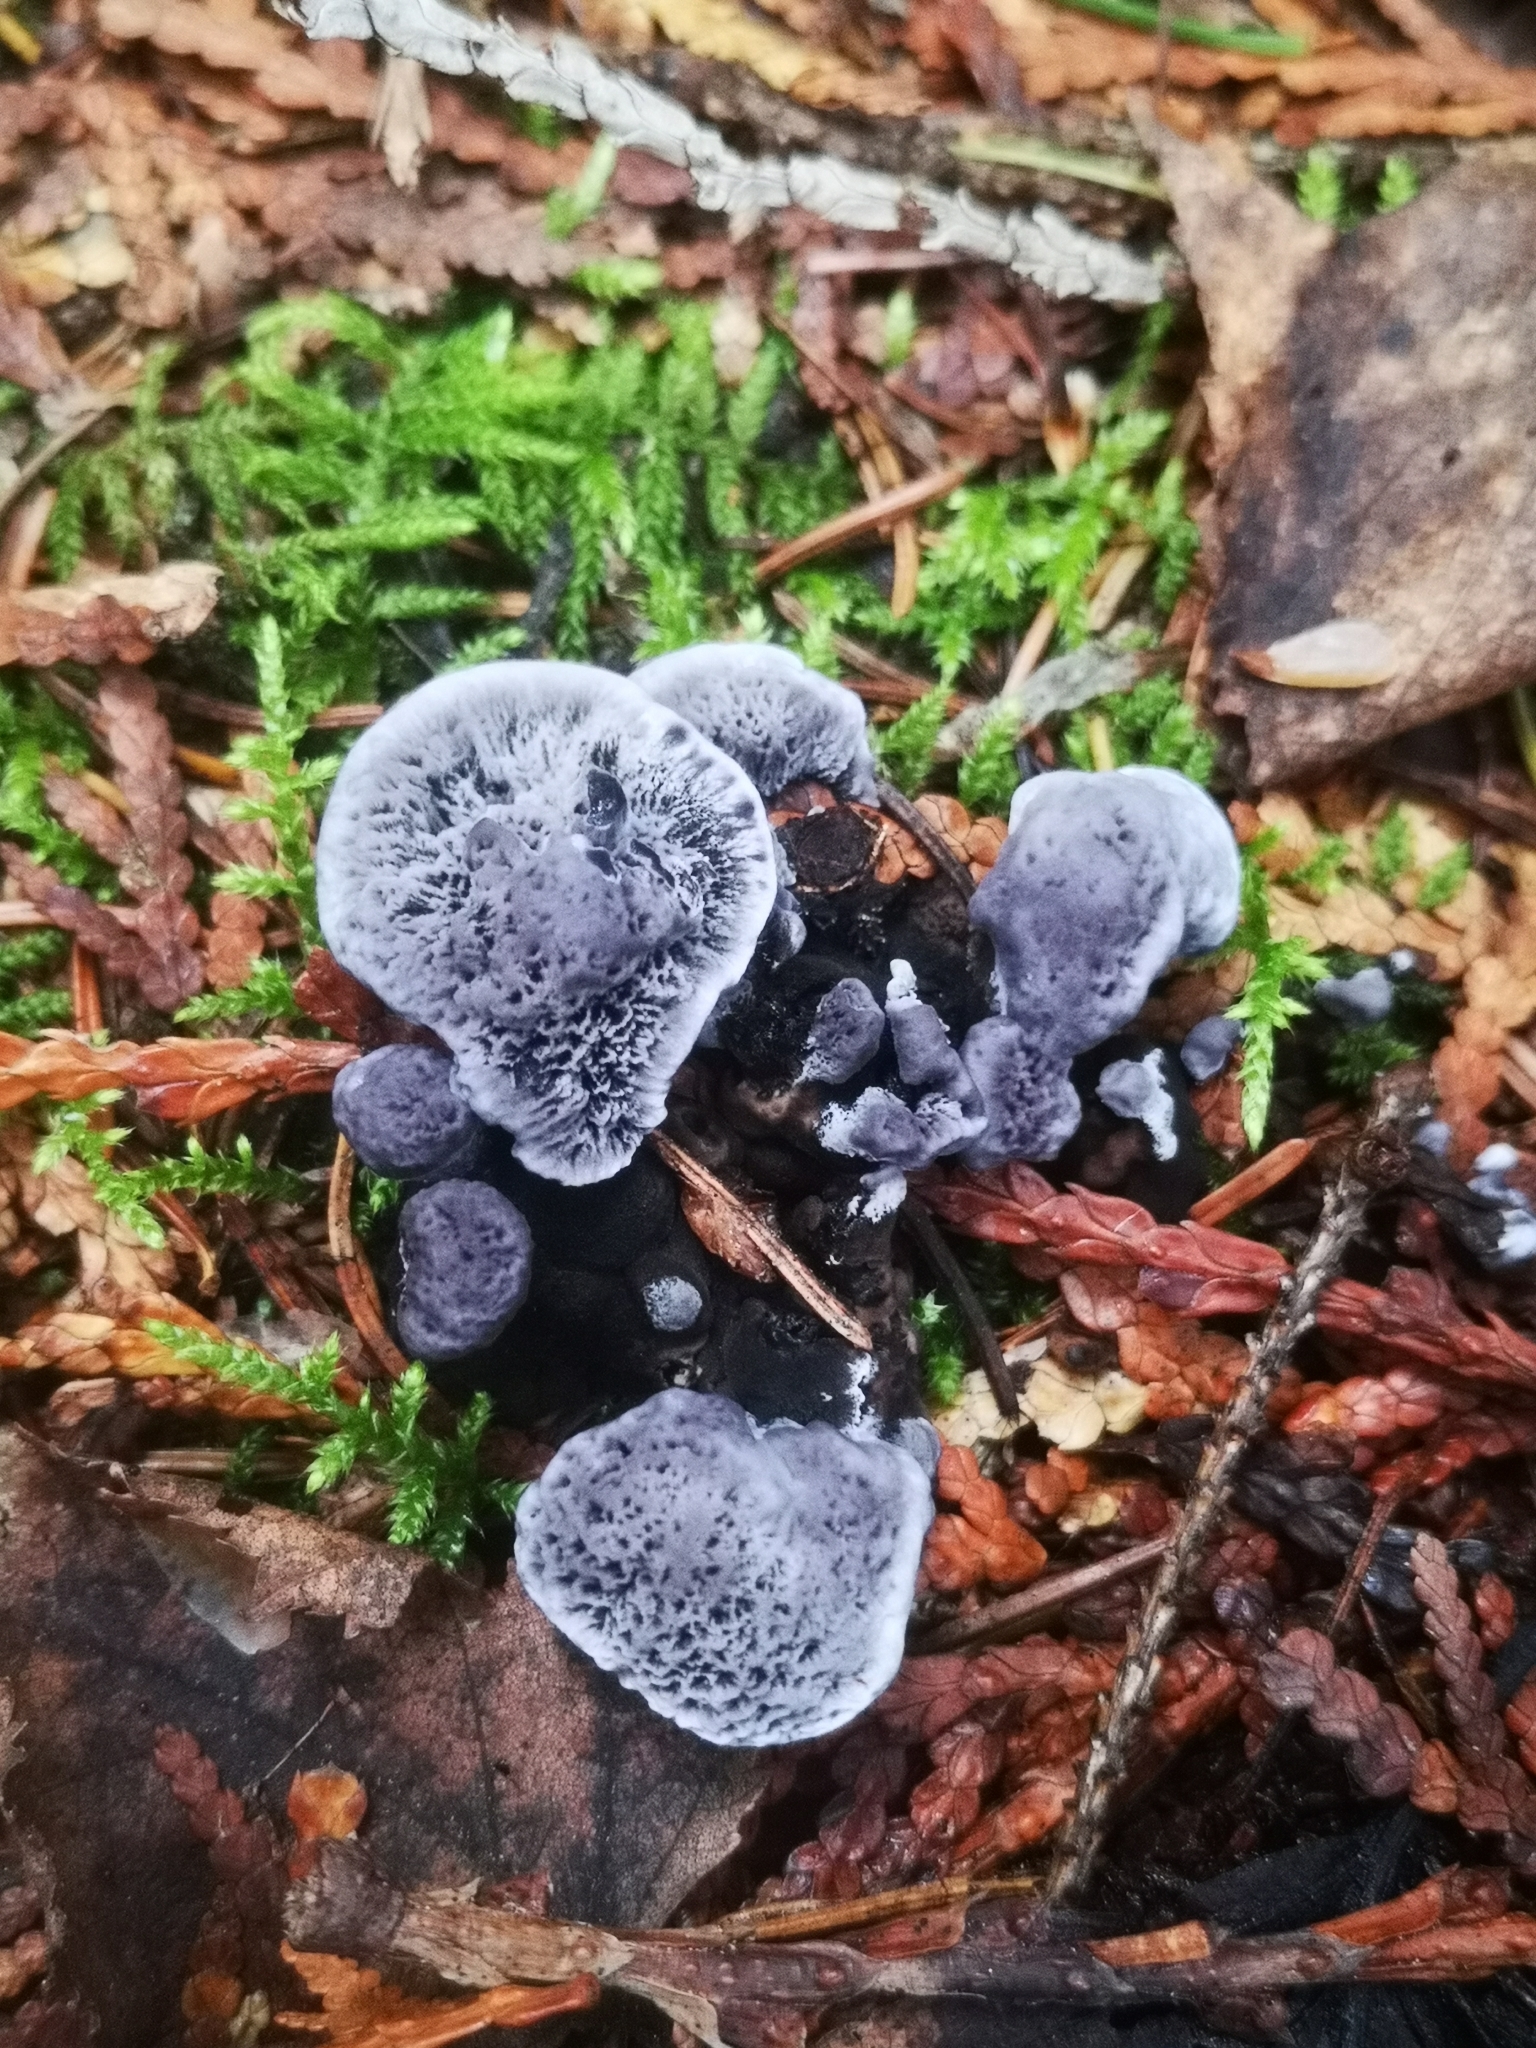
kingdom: Fungi
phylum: Basidiomycota
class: Agaricomycetes
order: Thelephorales
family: Thelephoraceae
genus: Phellodon
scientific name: Phellodon niger
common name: Black tooth
